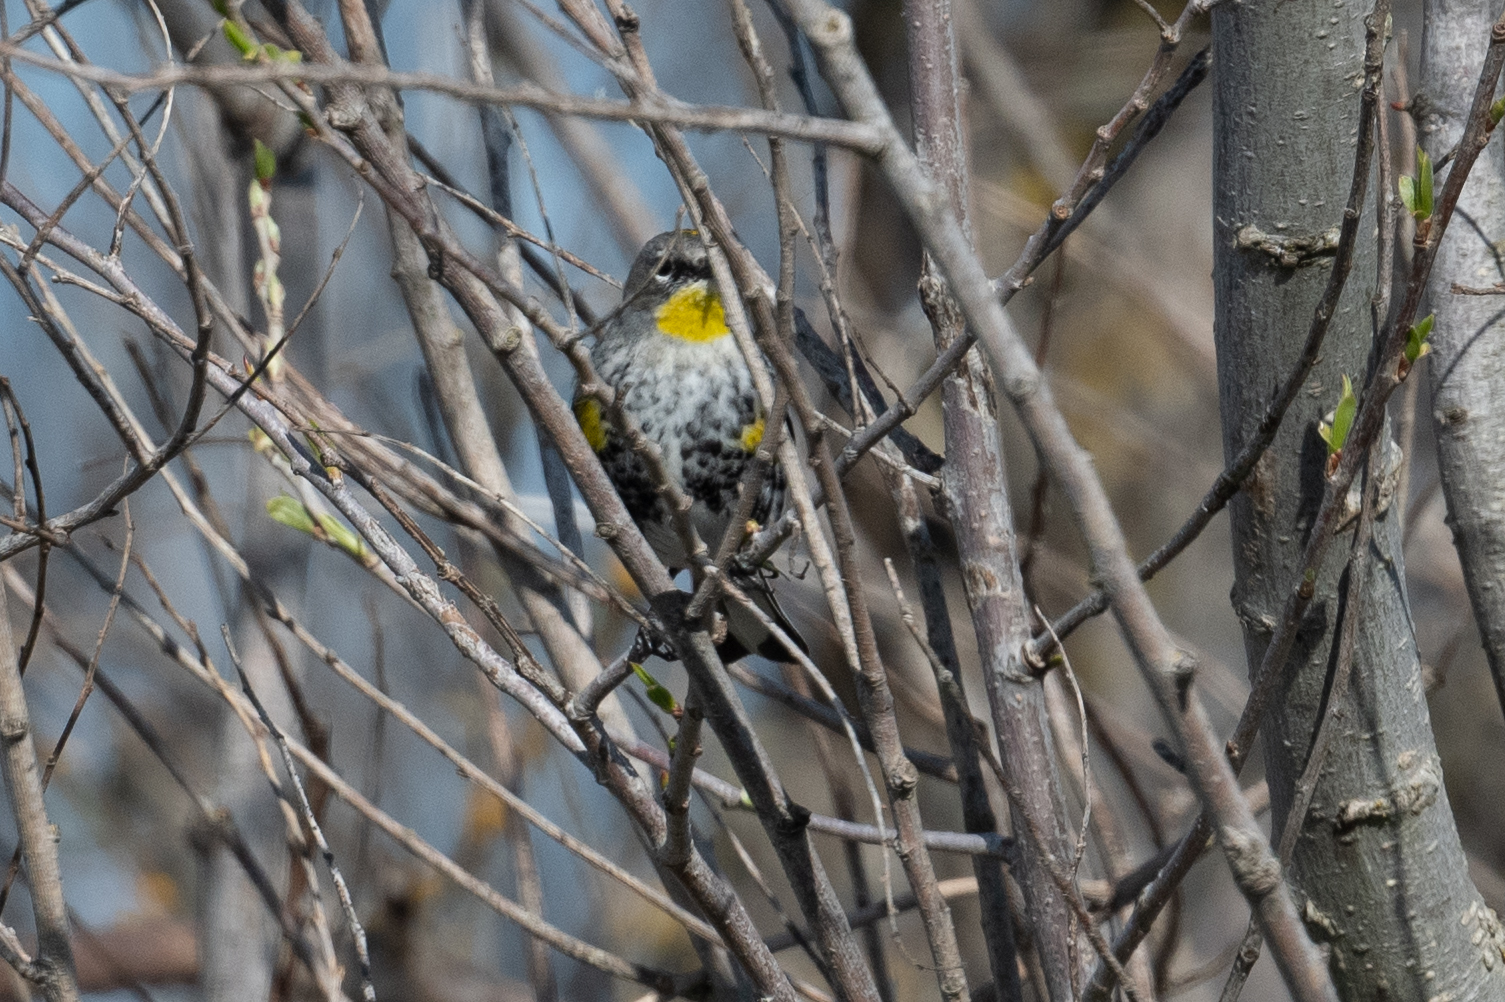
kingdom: Animalia
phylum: Chordata
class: Aves
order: Passeriformes
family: Parulidae
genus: Setophaga
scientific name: Setophaga coronata
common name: Myrtle warbler
